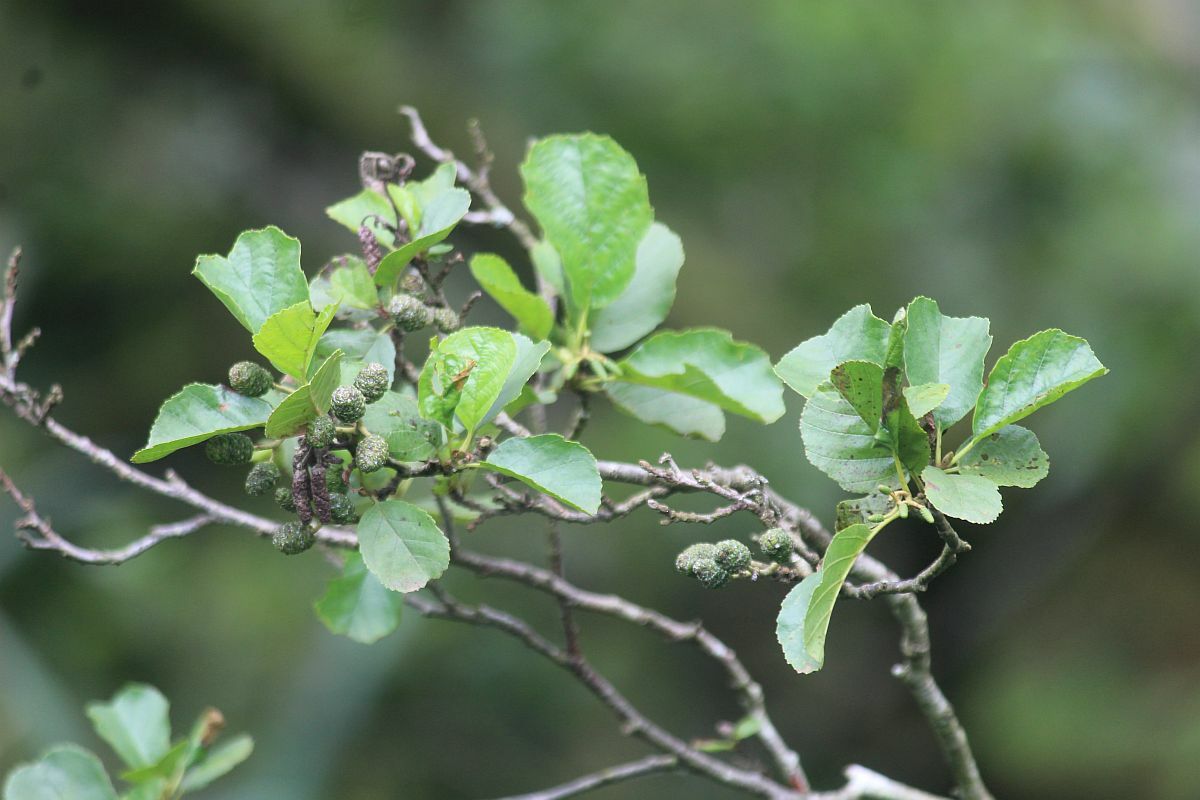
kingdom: Plantae
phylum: Tracheophyta
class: Magnoliopsida
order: Fagales
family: Betulaceae
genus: Alnus
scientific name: Alnus glutinosa
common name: Black alder
